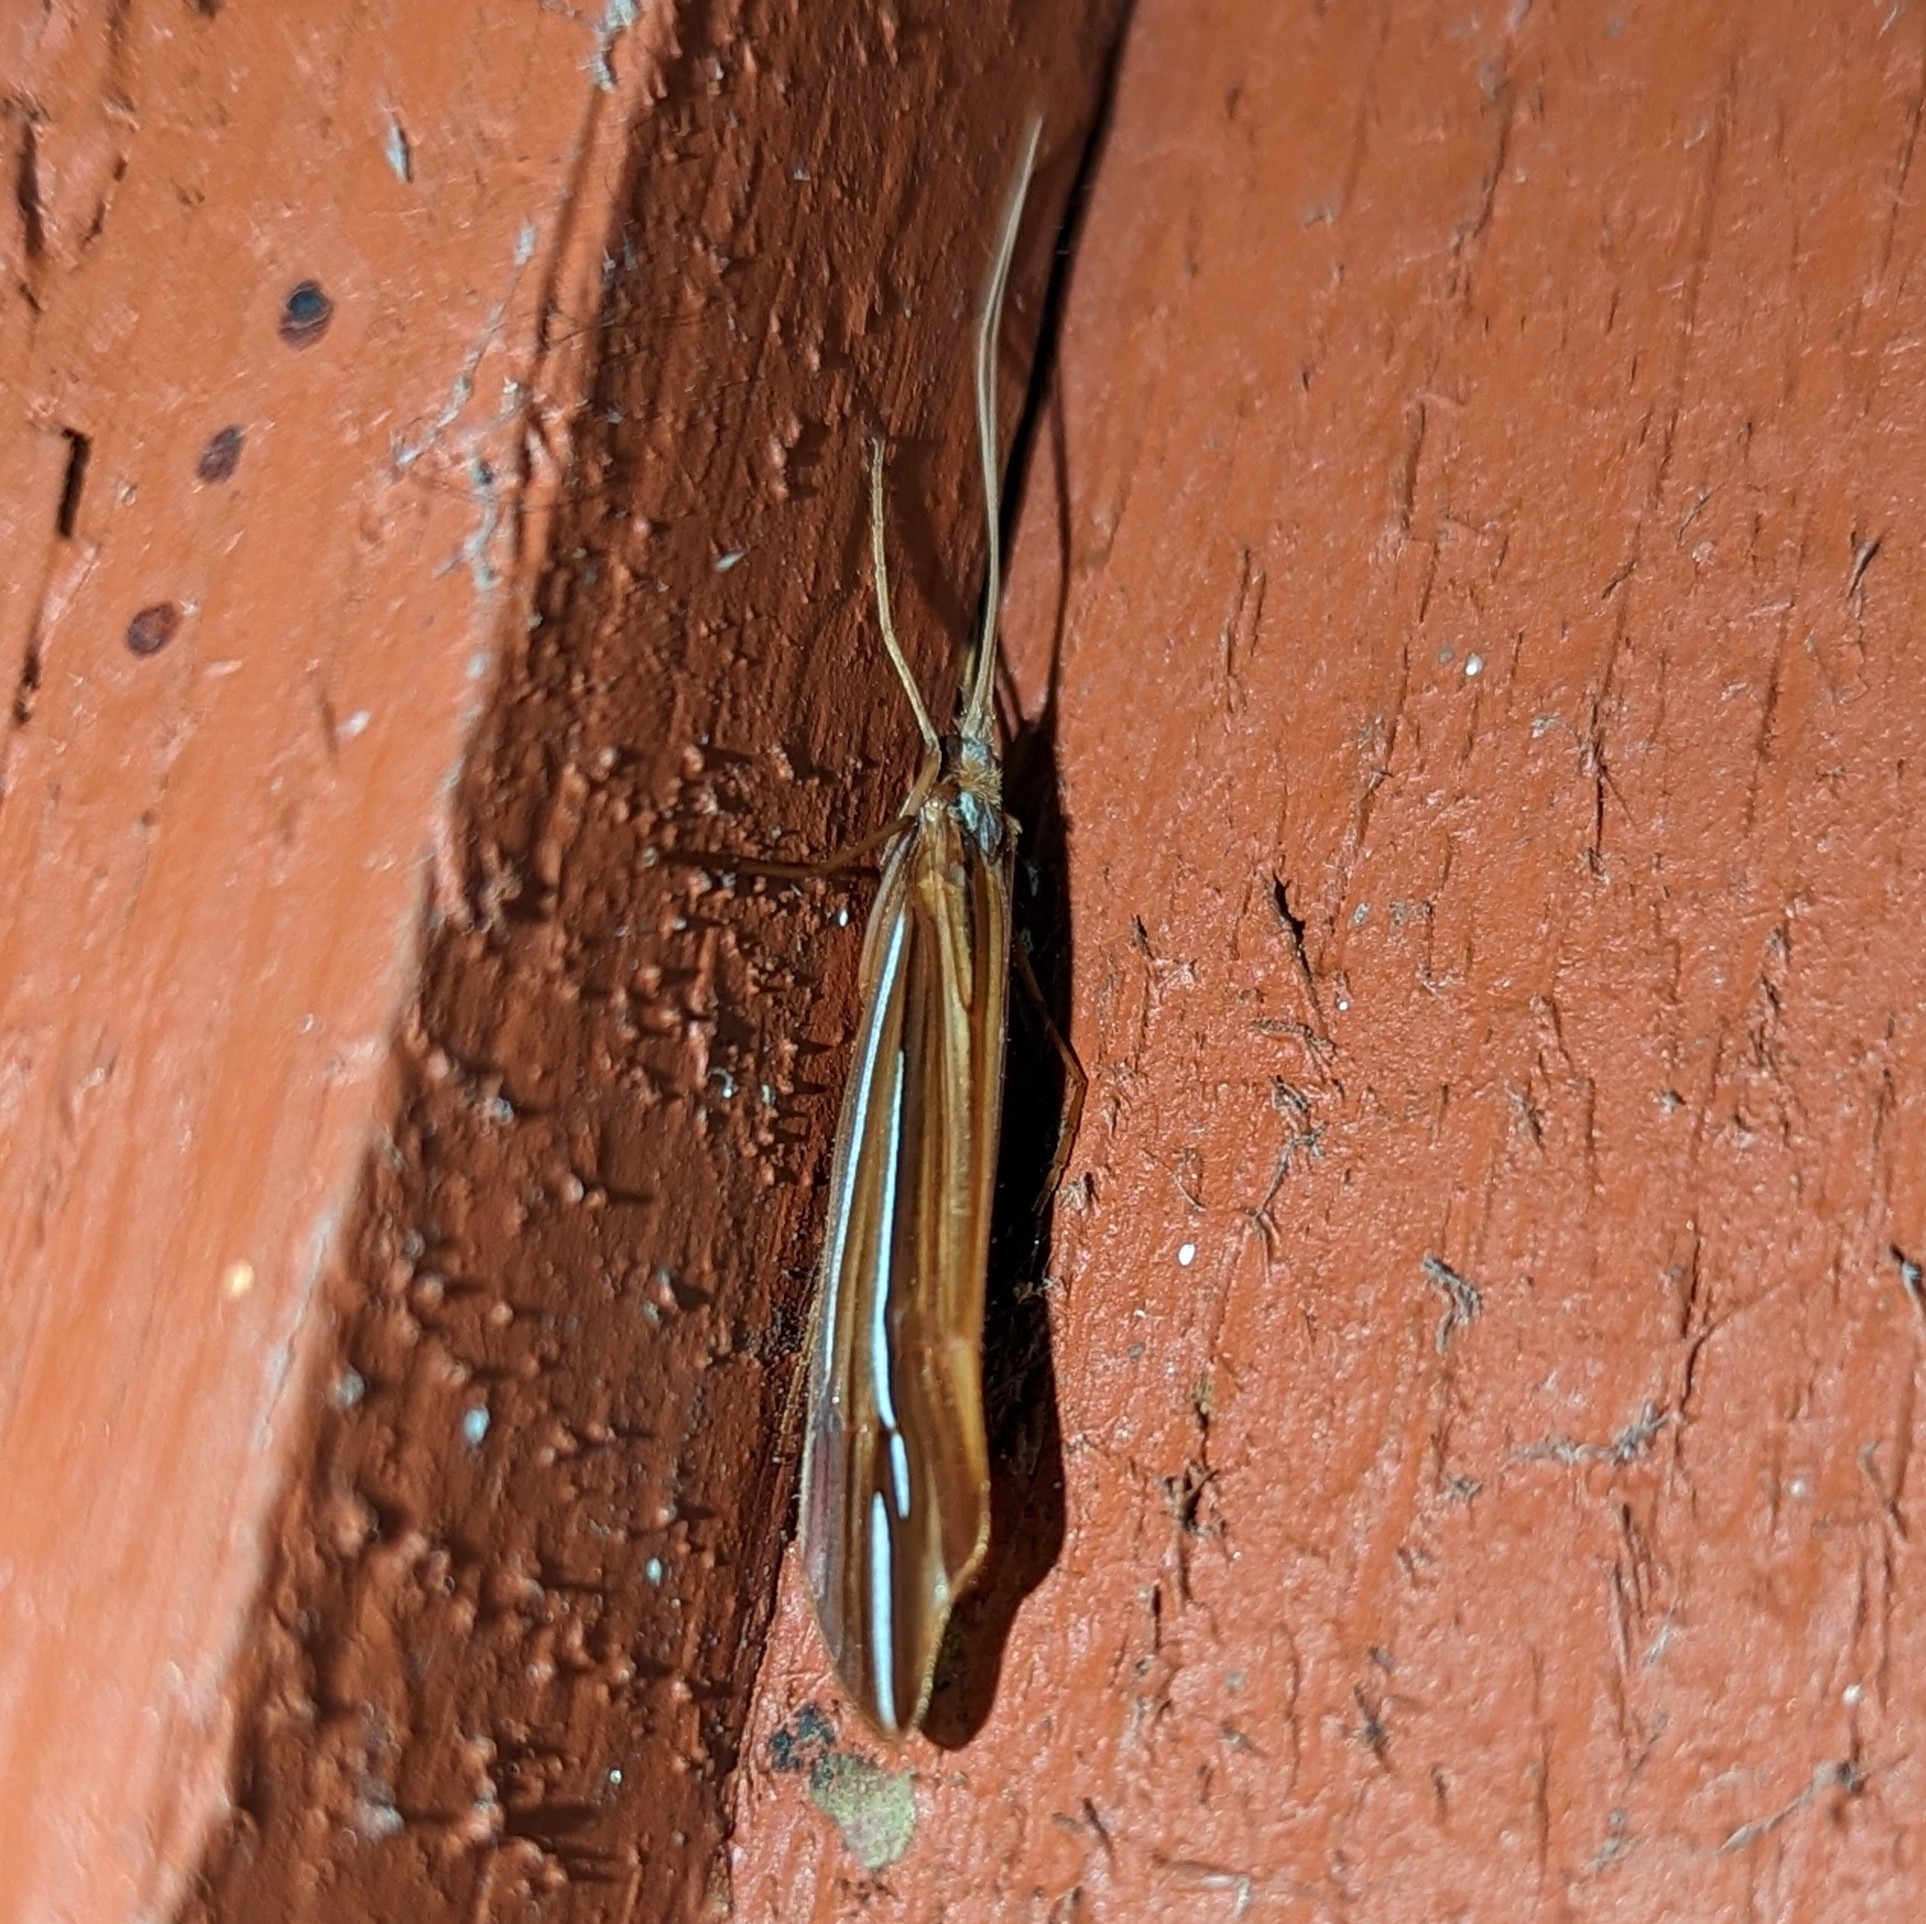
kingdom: Animalia
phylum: Arthropoda
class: Insecta
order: Trichoptera
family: Limnephilidae
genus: Psychoglypha
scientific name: Psychoglypha bella
